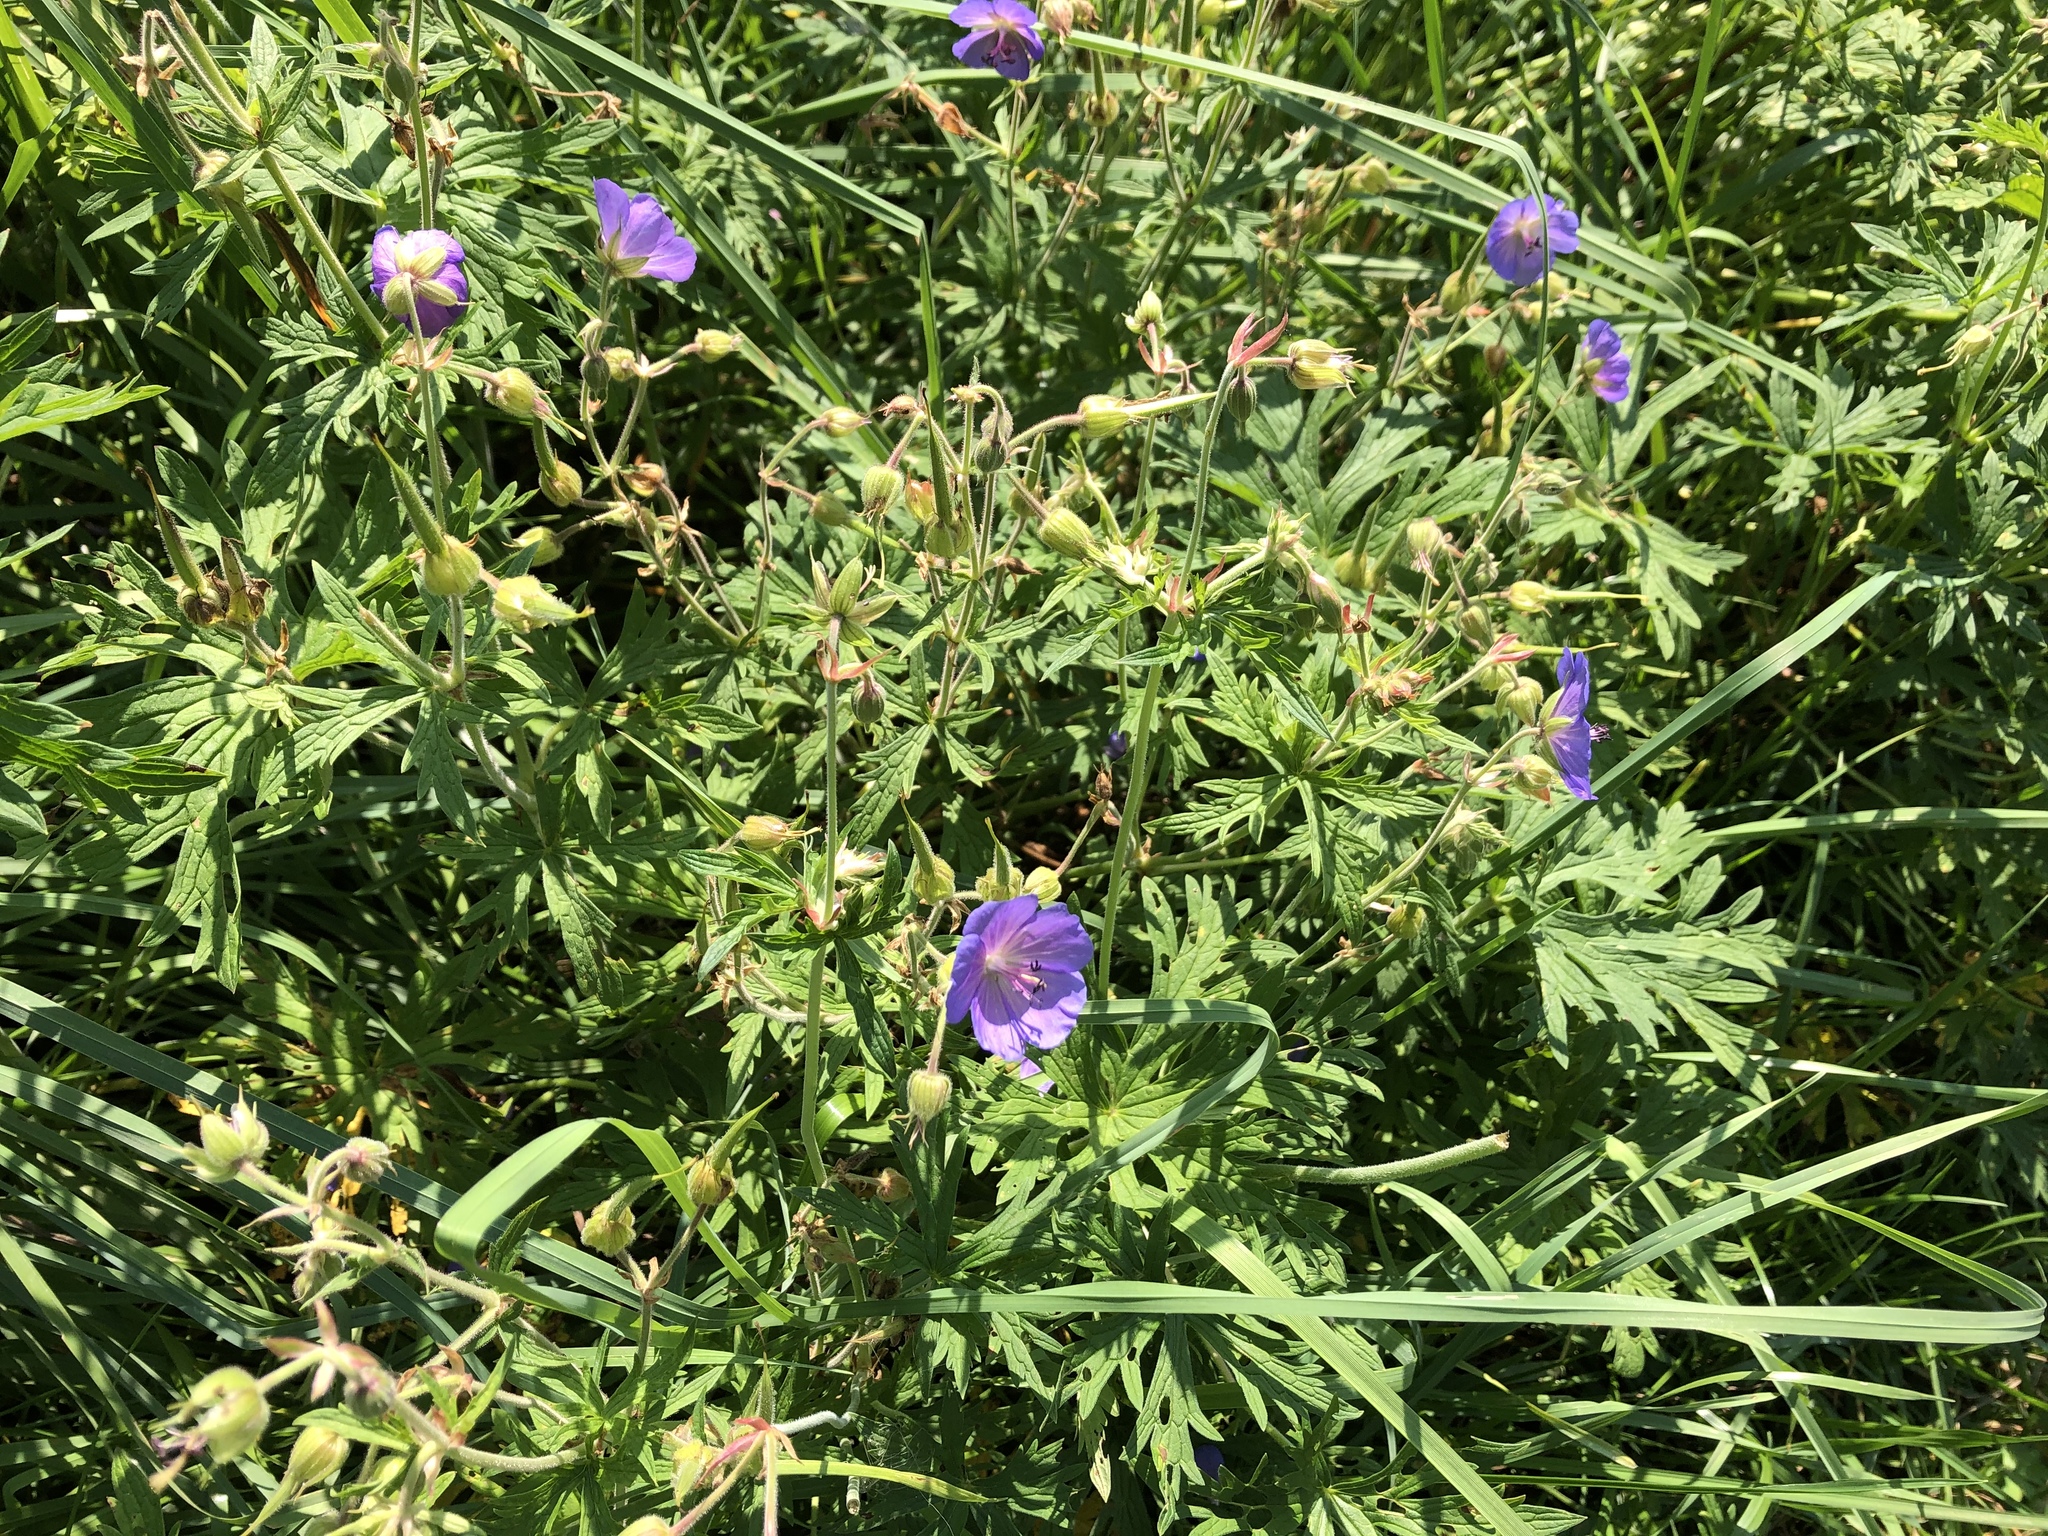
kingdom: Plantae
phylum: Tracheophyta
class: Magnoliopsida
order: Geraniales
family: Geraniaceae
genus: Geranium
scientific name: Geranium pratense
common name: Meadow crane's-bill
